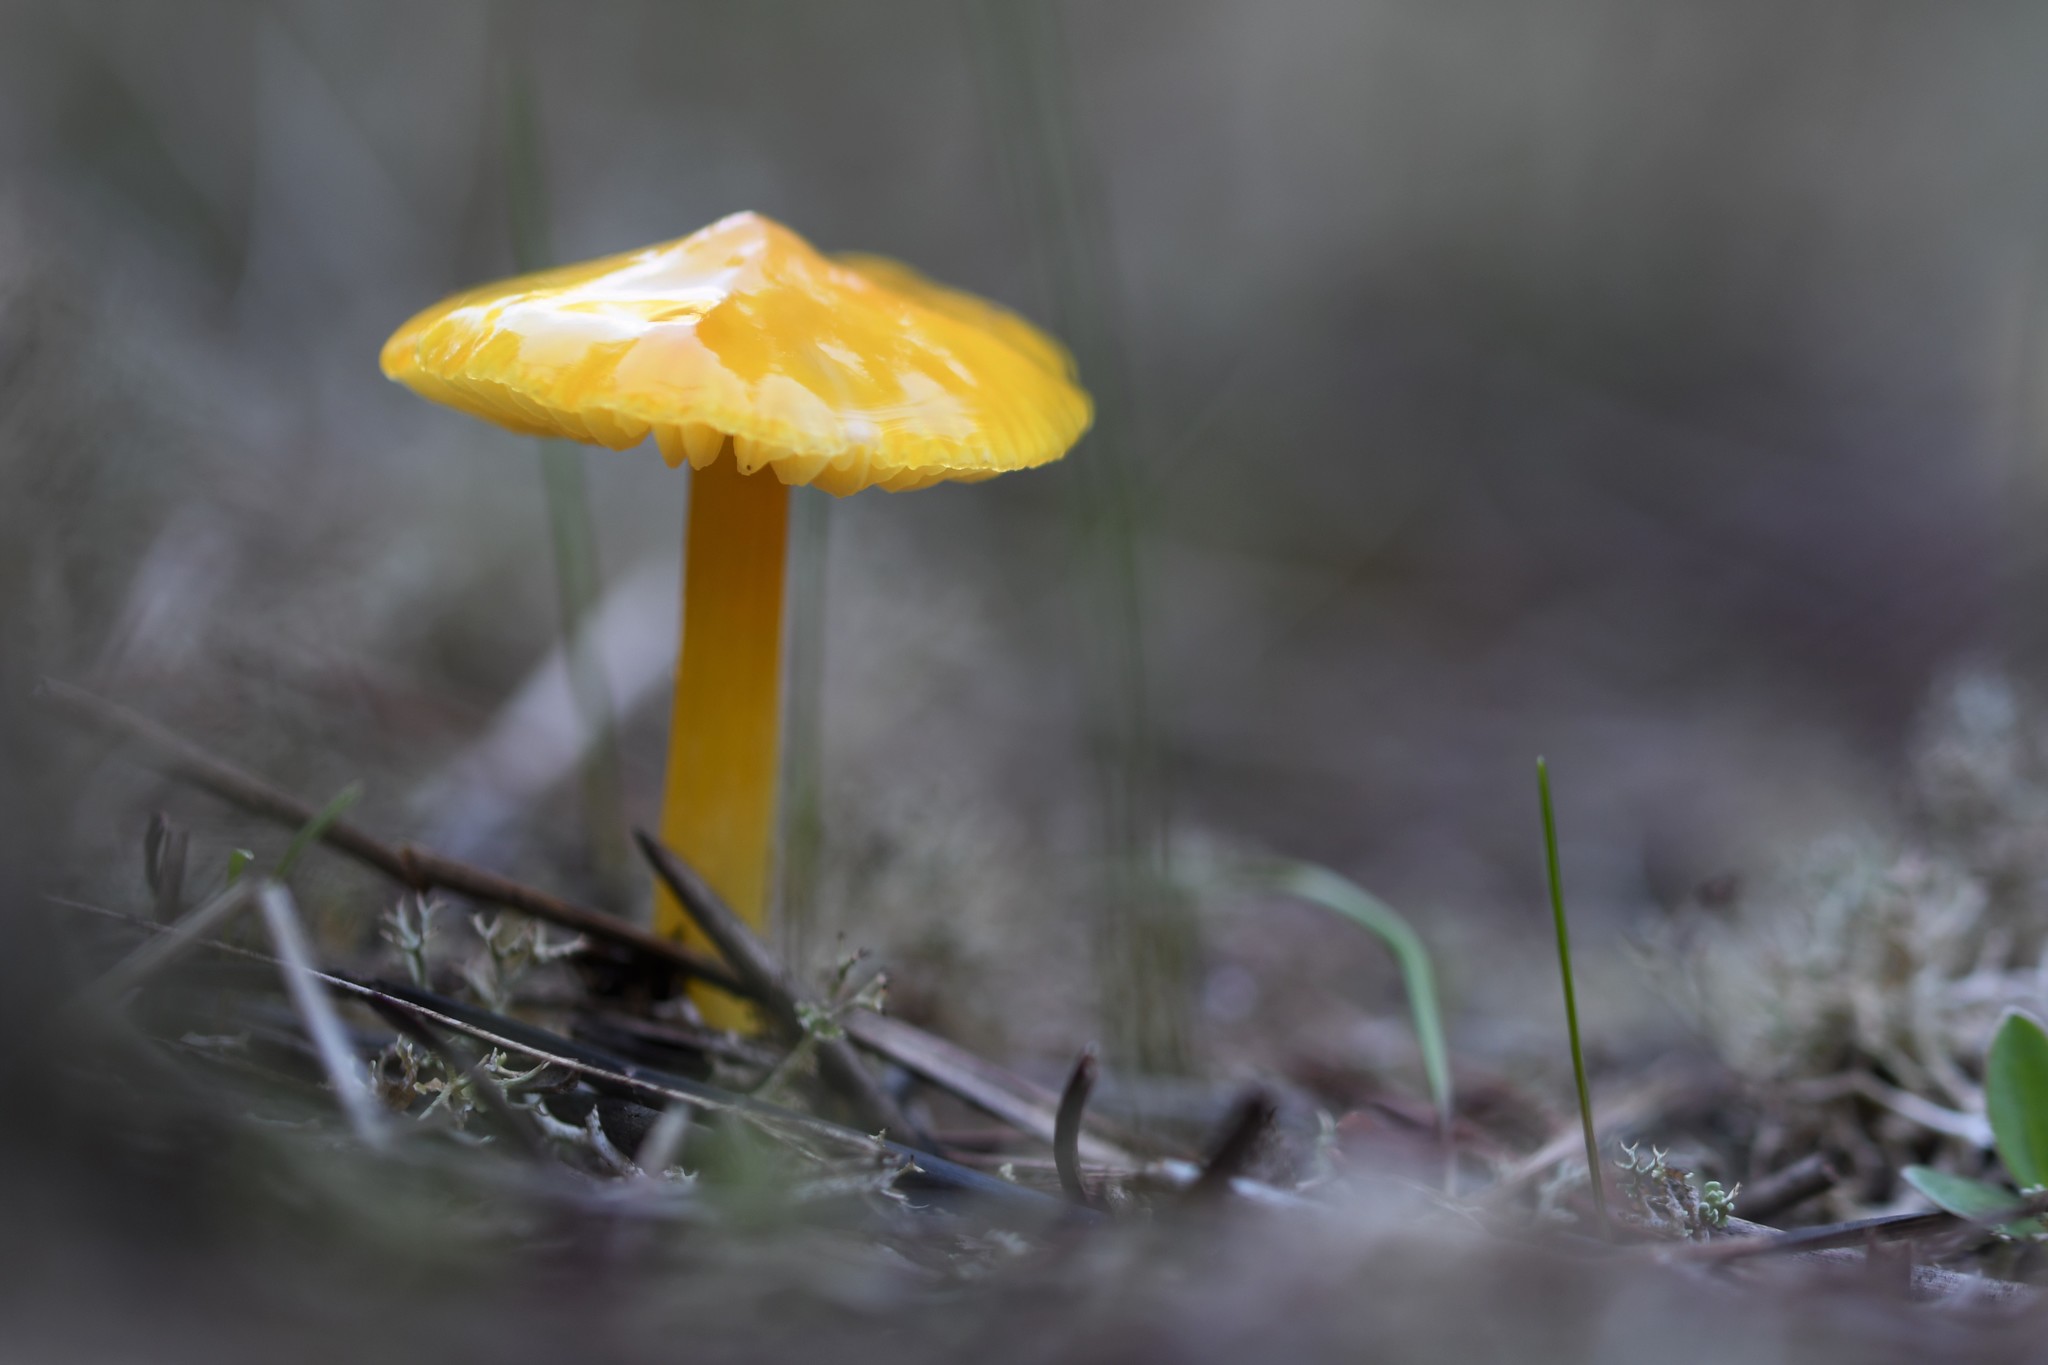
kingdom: Fungi
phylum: Basidiomycota
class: Agaricomycetes
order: Agaricales
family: Hygrophoraceae
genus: Hygrocybe
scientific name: Hygrocybe acutoconica
